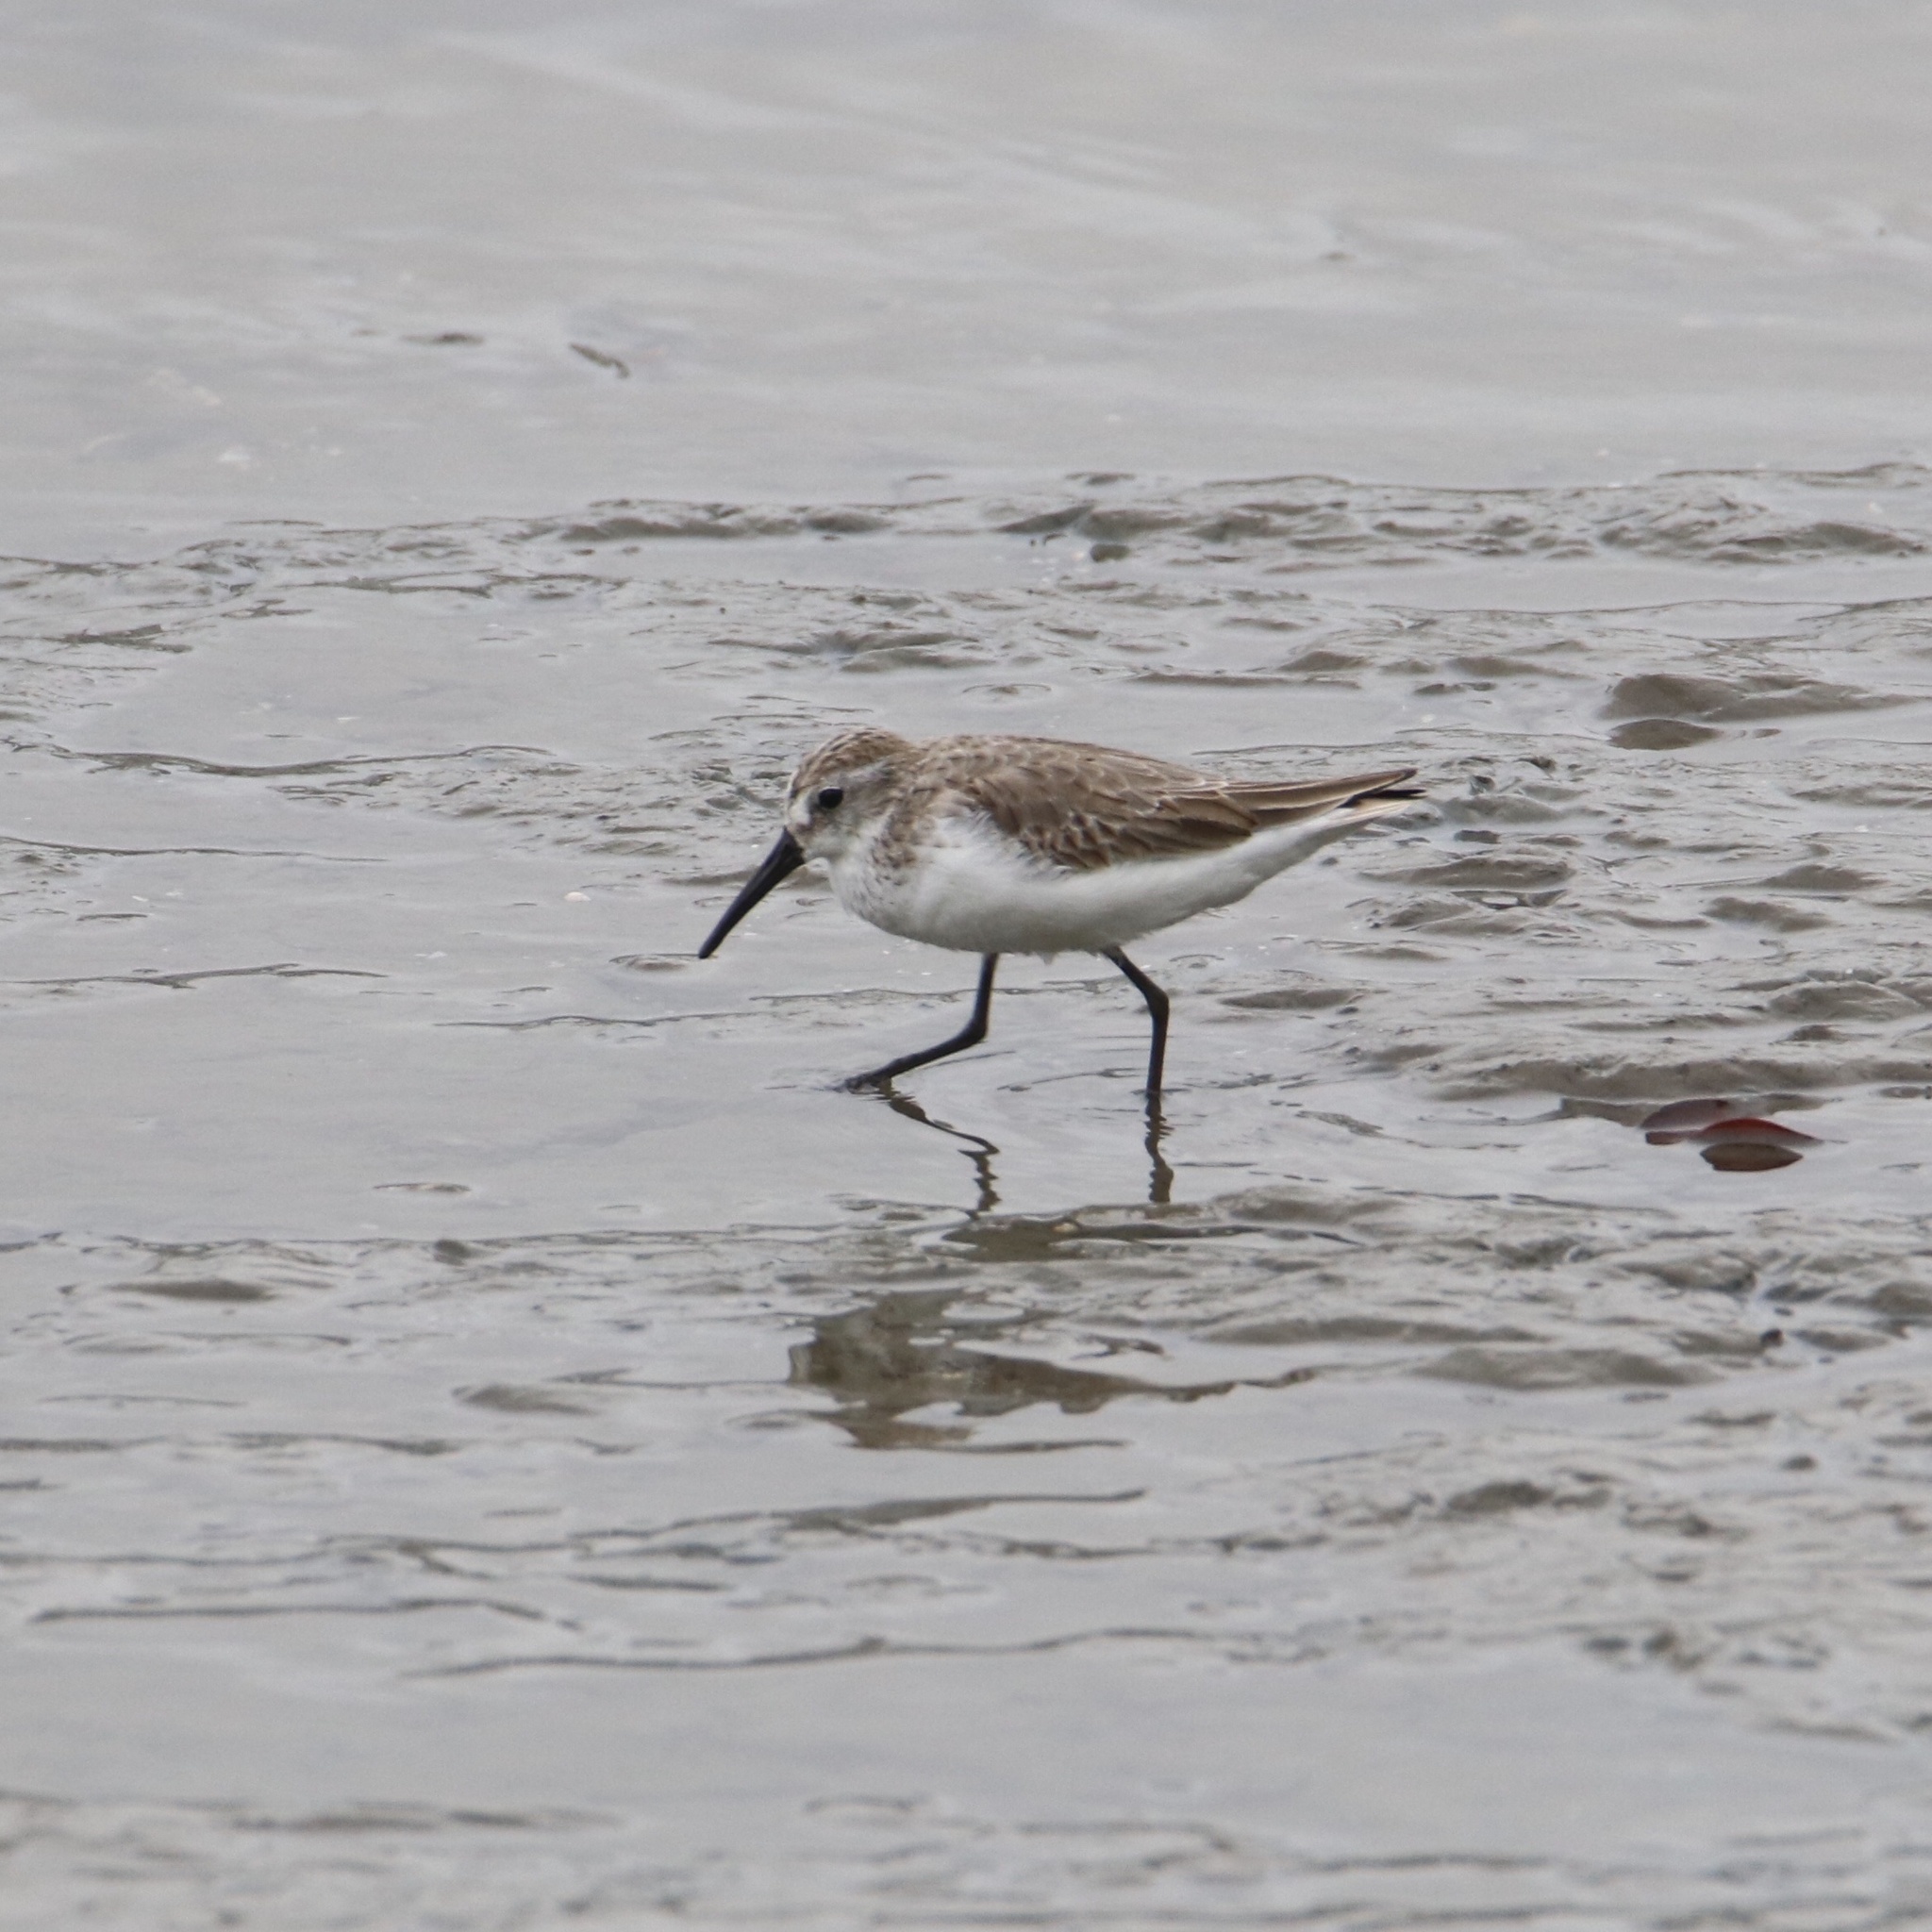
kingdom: Animalia
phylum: Chordata
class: Aves
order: Charadriiformes
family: Scolopacidae
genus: Calidris
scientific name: Calidris mauri
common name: Western sandpiper
